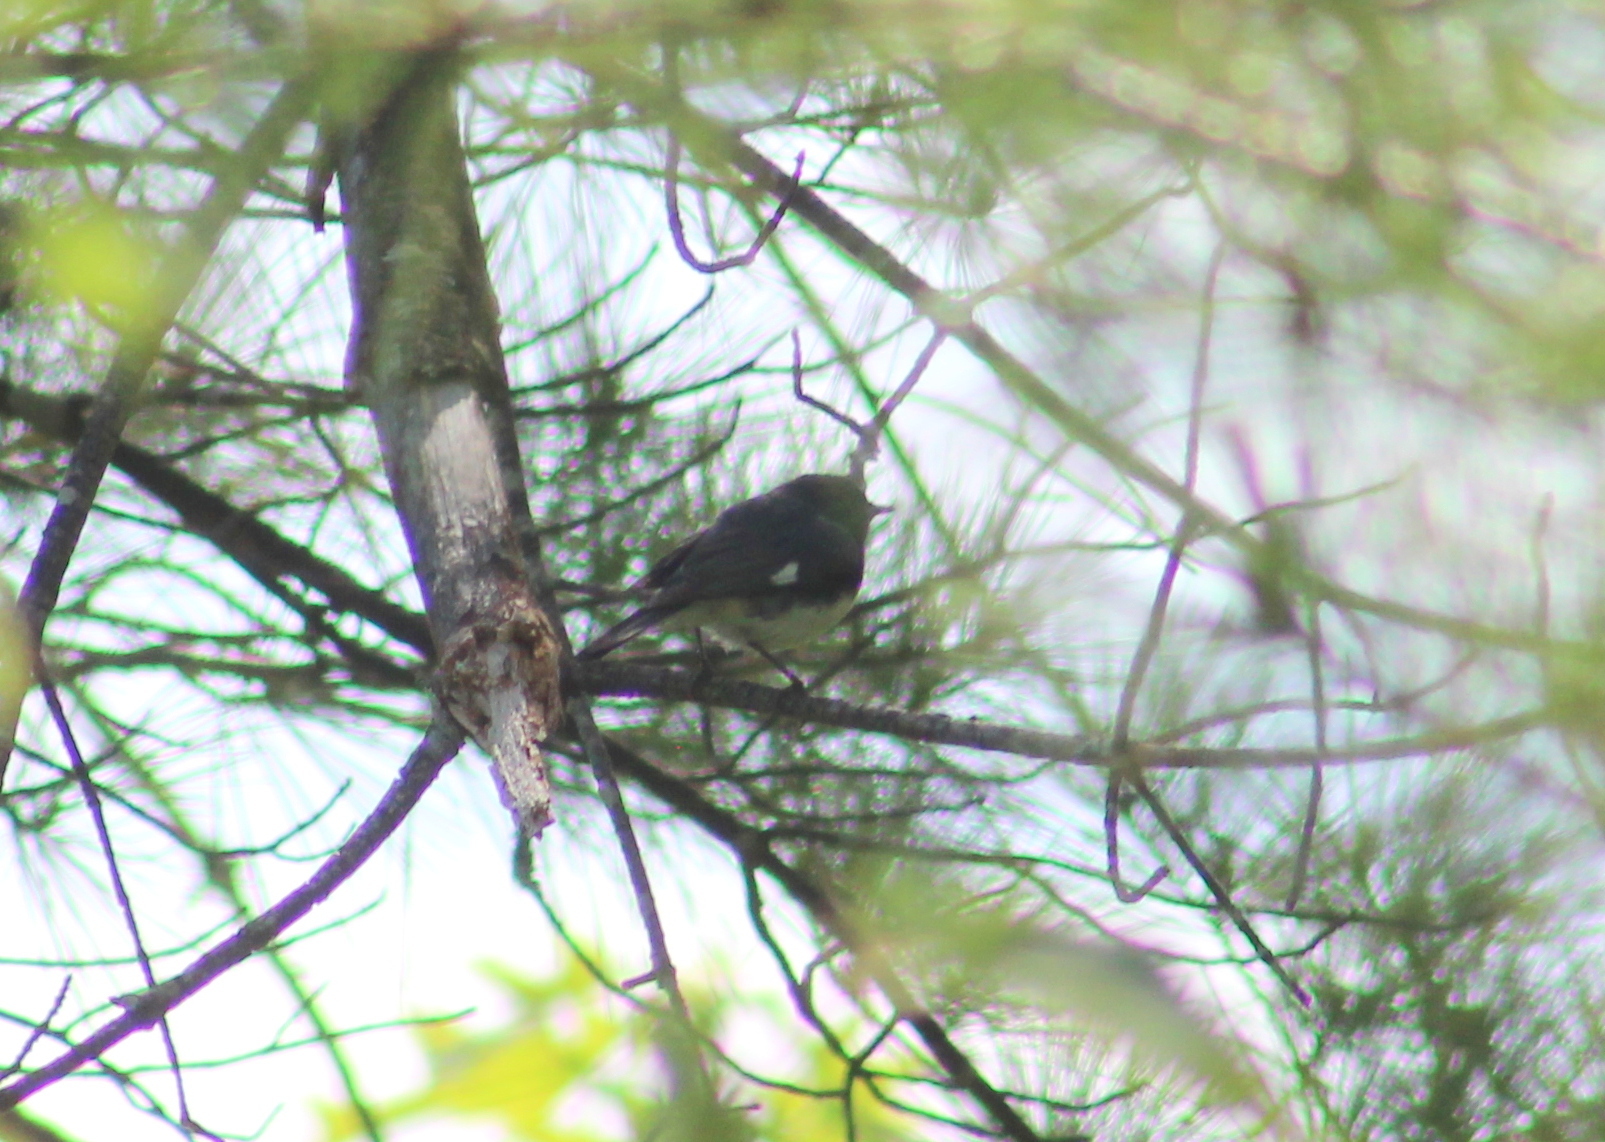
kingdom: Animalia
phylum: Chordata
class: Aves
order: Passeriformes
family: Parulidae
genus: Setophaga
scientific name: Setophaga caerulescens
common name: Black-throated blue warbler
